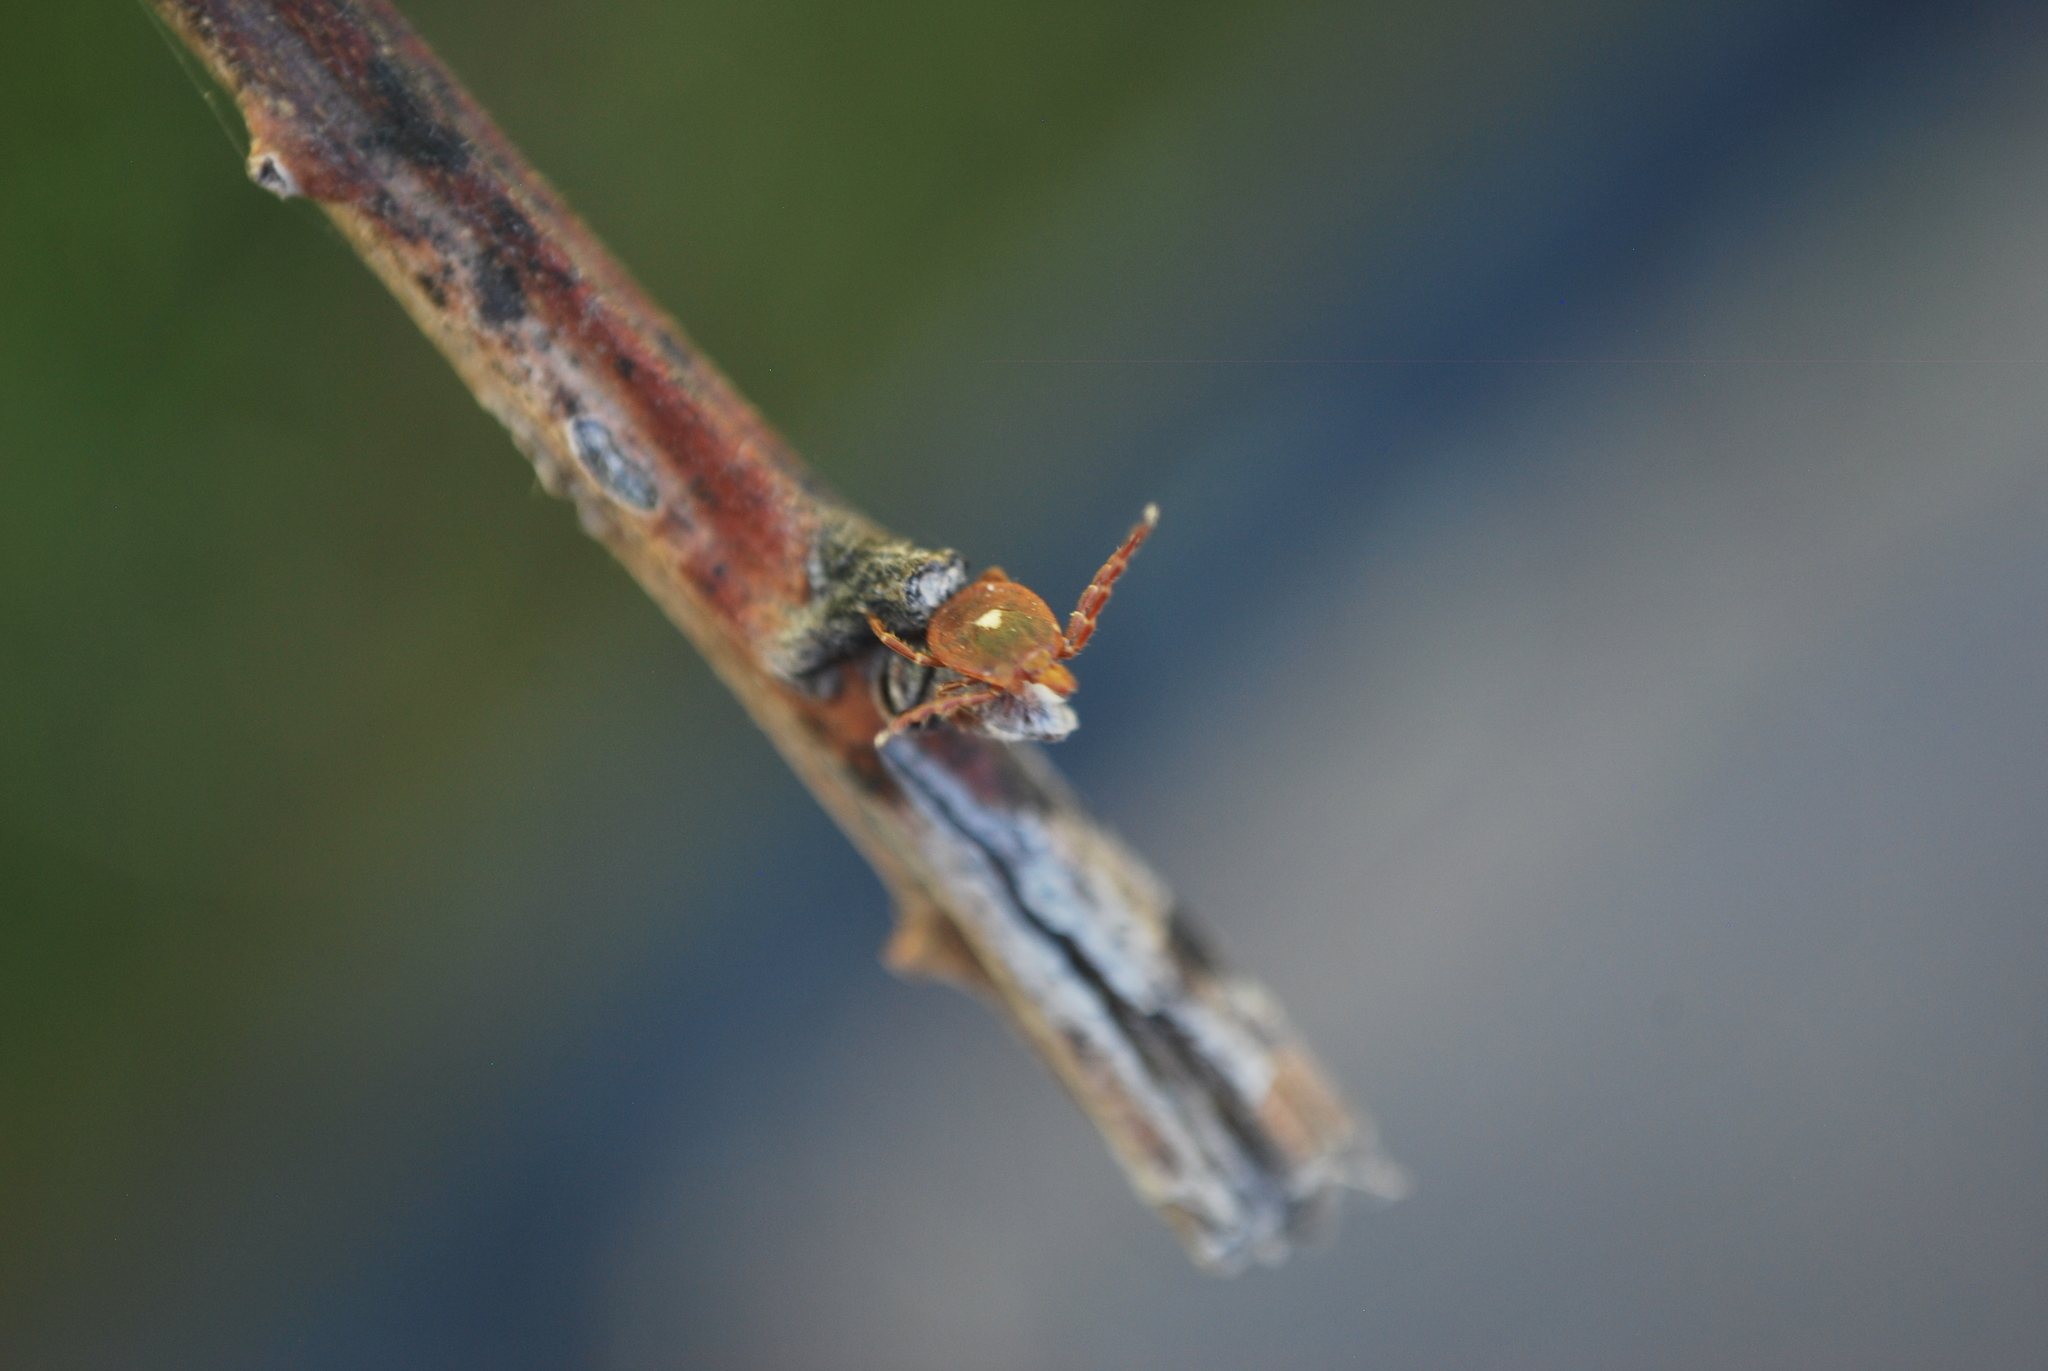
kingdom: Animalia
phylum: Arthropoda
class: Arachnida
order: Ixodida
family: Ixodidae
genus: Amblyomma
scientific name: Amblyomma americanum
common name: Lone star tick
